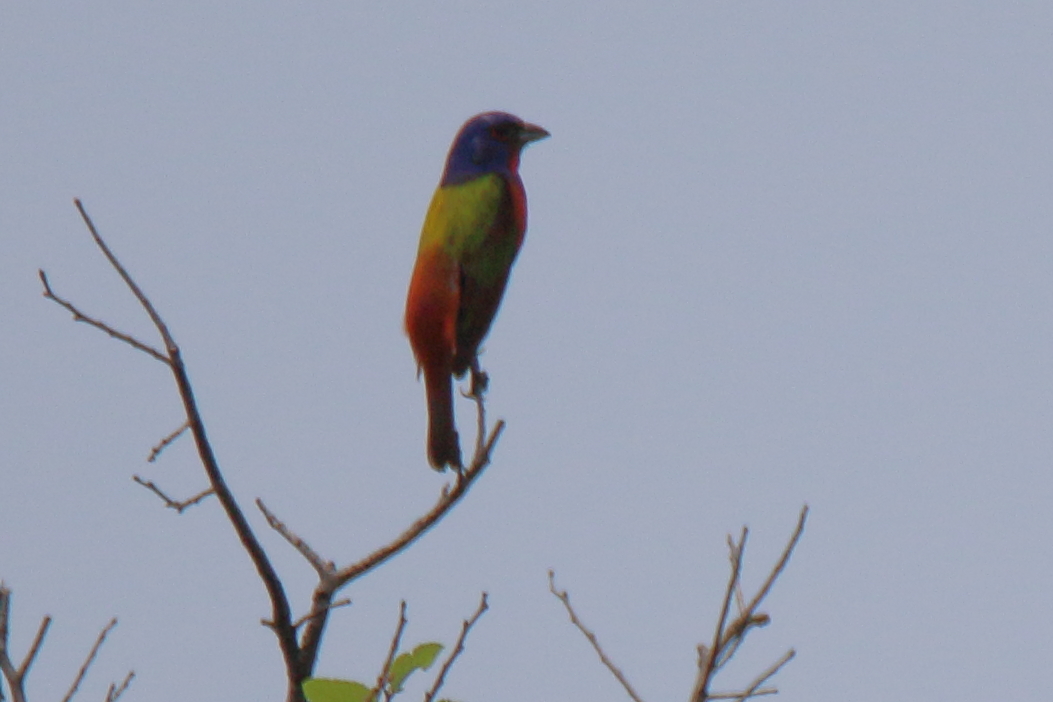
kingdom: Animalia
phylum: Chordata
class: Aves
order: Passeriformes
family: Cardinalidae
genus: Passerina
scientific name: Passerina ciris
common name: Painted bunting
